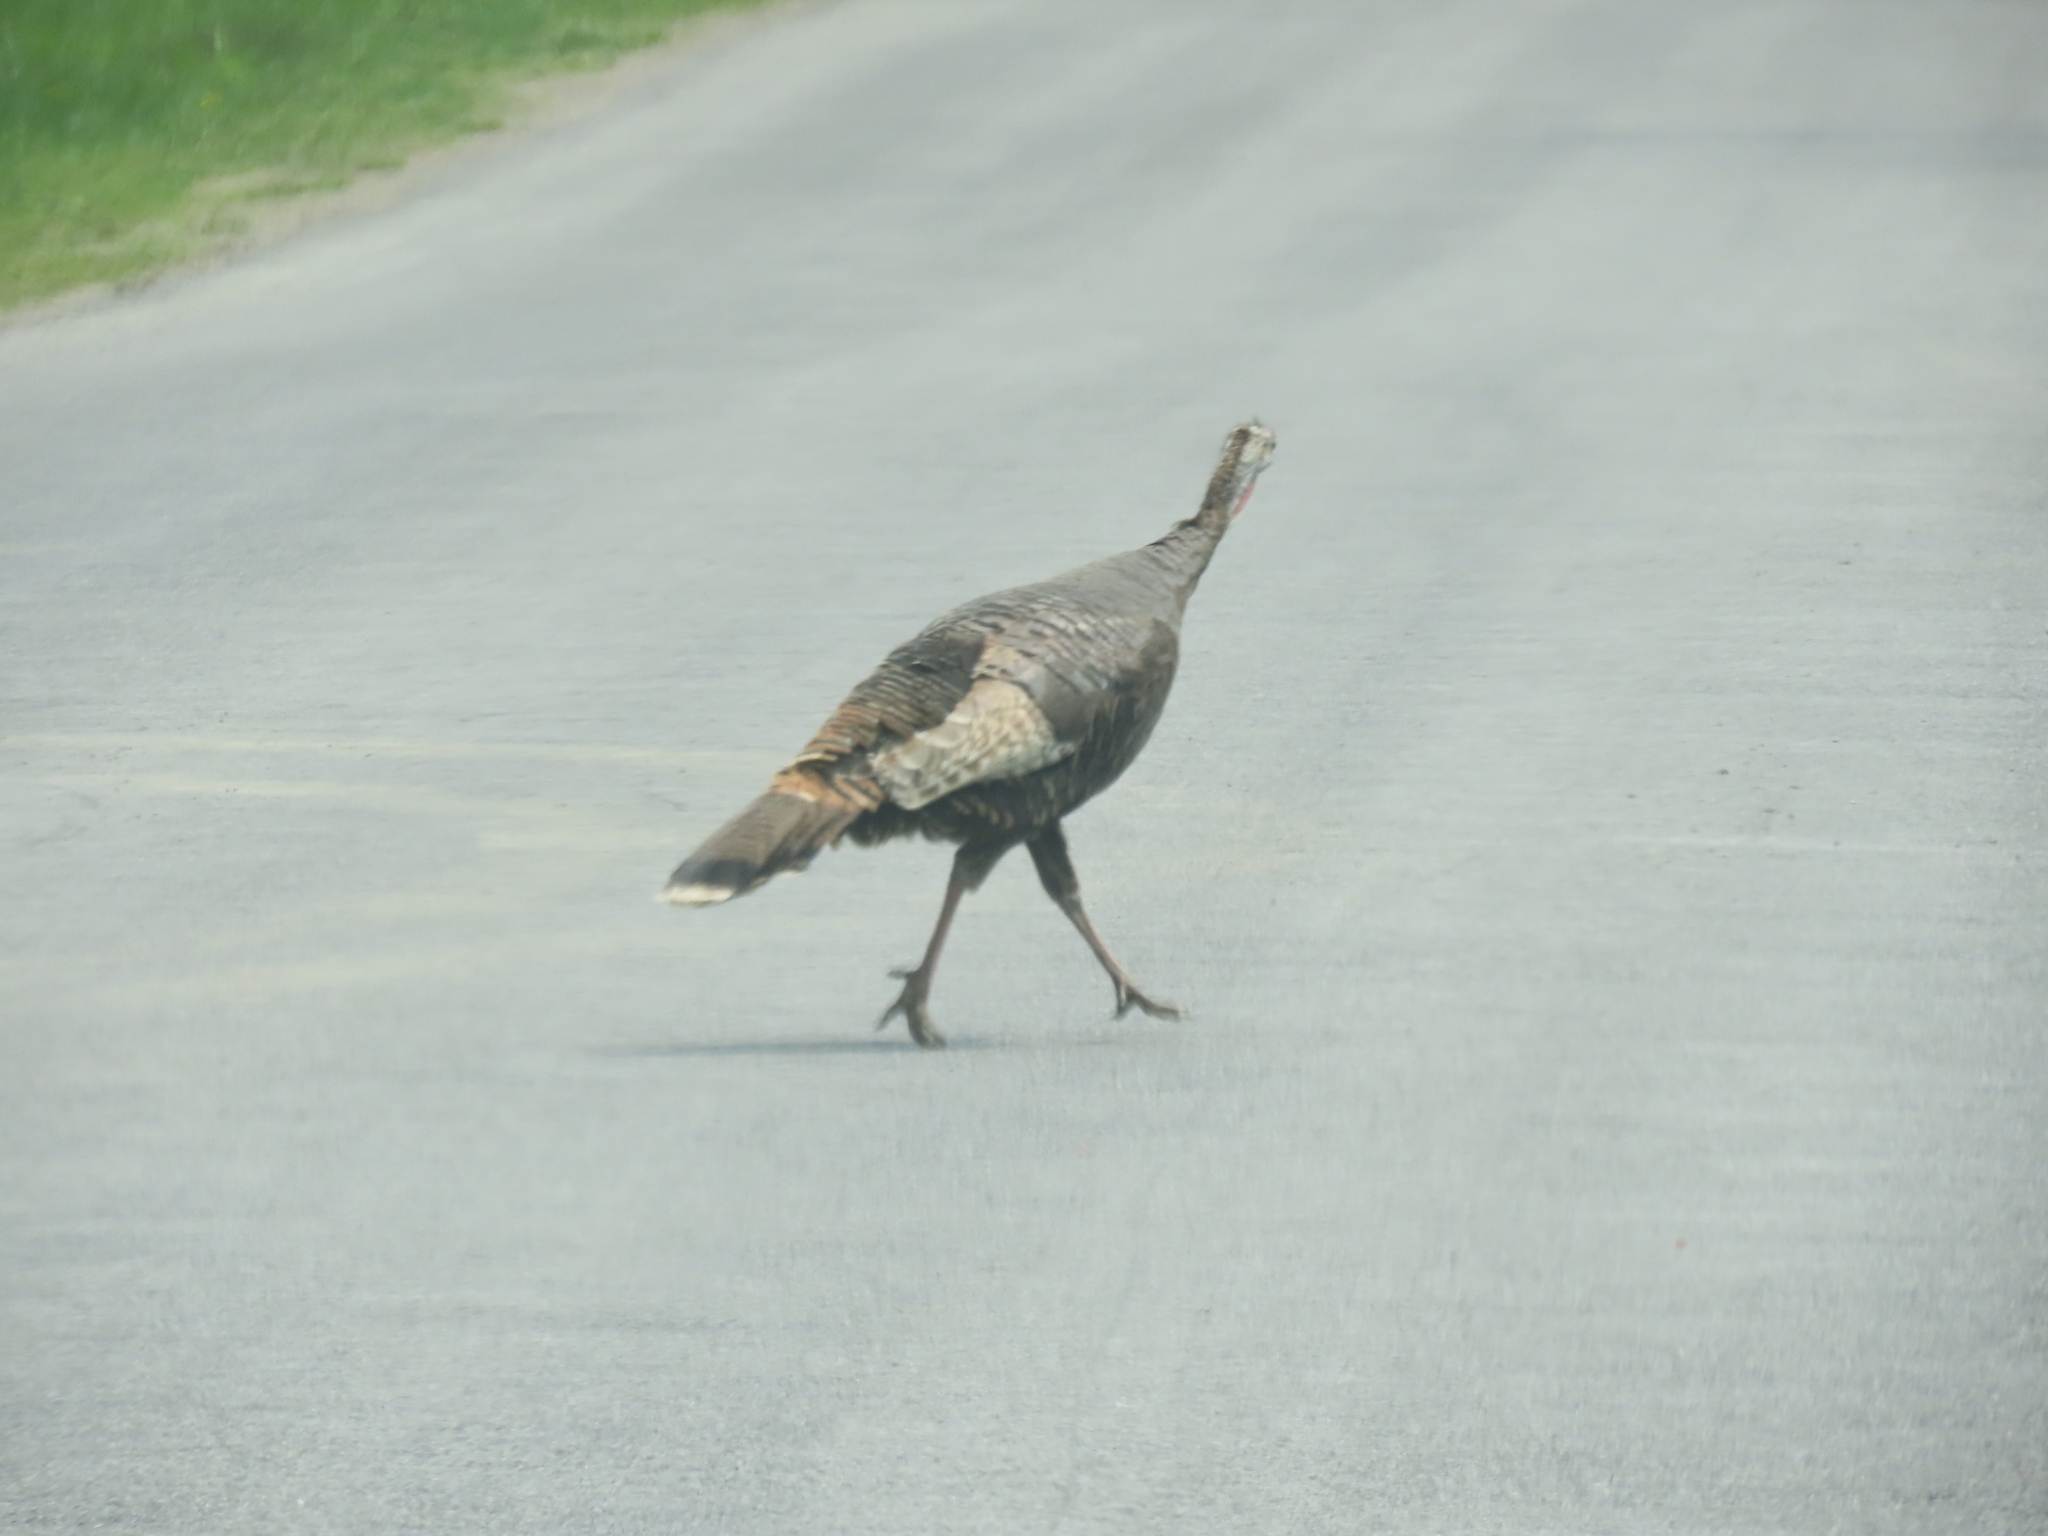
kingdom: Animalia
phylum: Chordata
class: Aves
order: Galliformes
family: Phasianidae
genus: Meleagris
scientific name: Meleagris gallopavo
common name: Wild turkey
